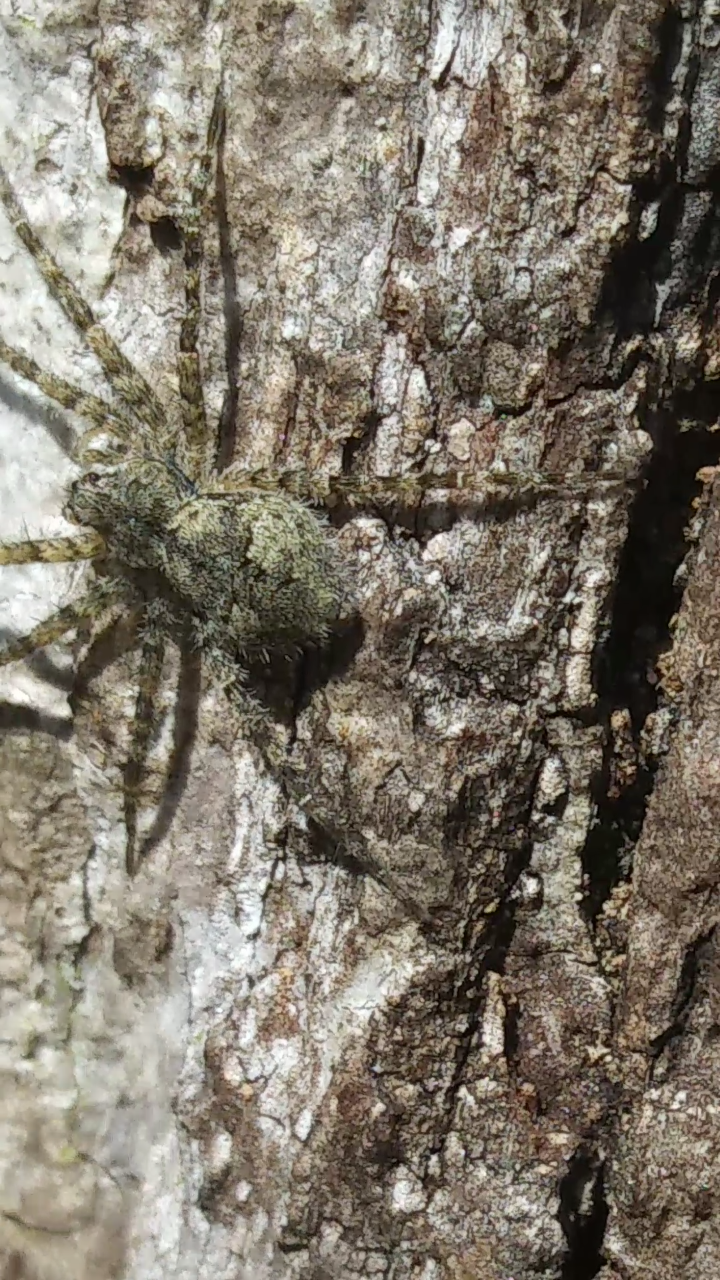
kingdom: Animalia
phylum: Arthropoda
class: Arachnida
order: Araneae
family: Pisauridae
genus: Dolomedes
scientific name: Dolomedes albineus
